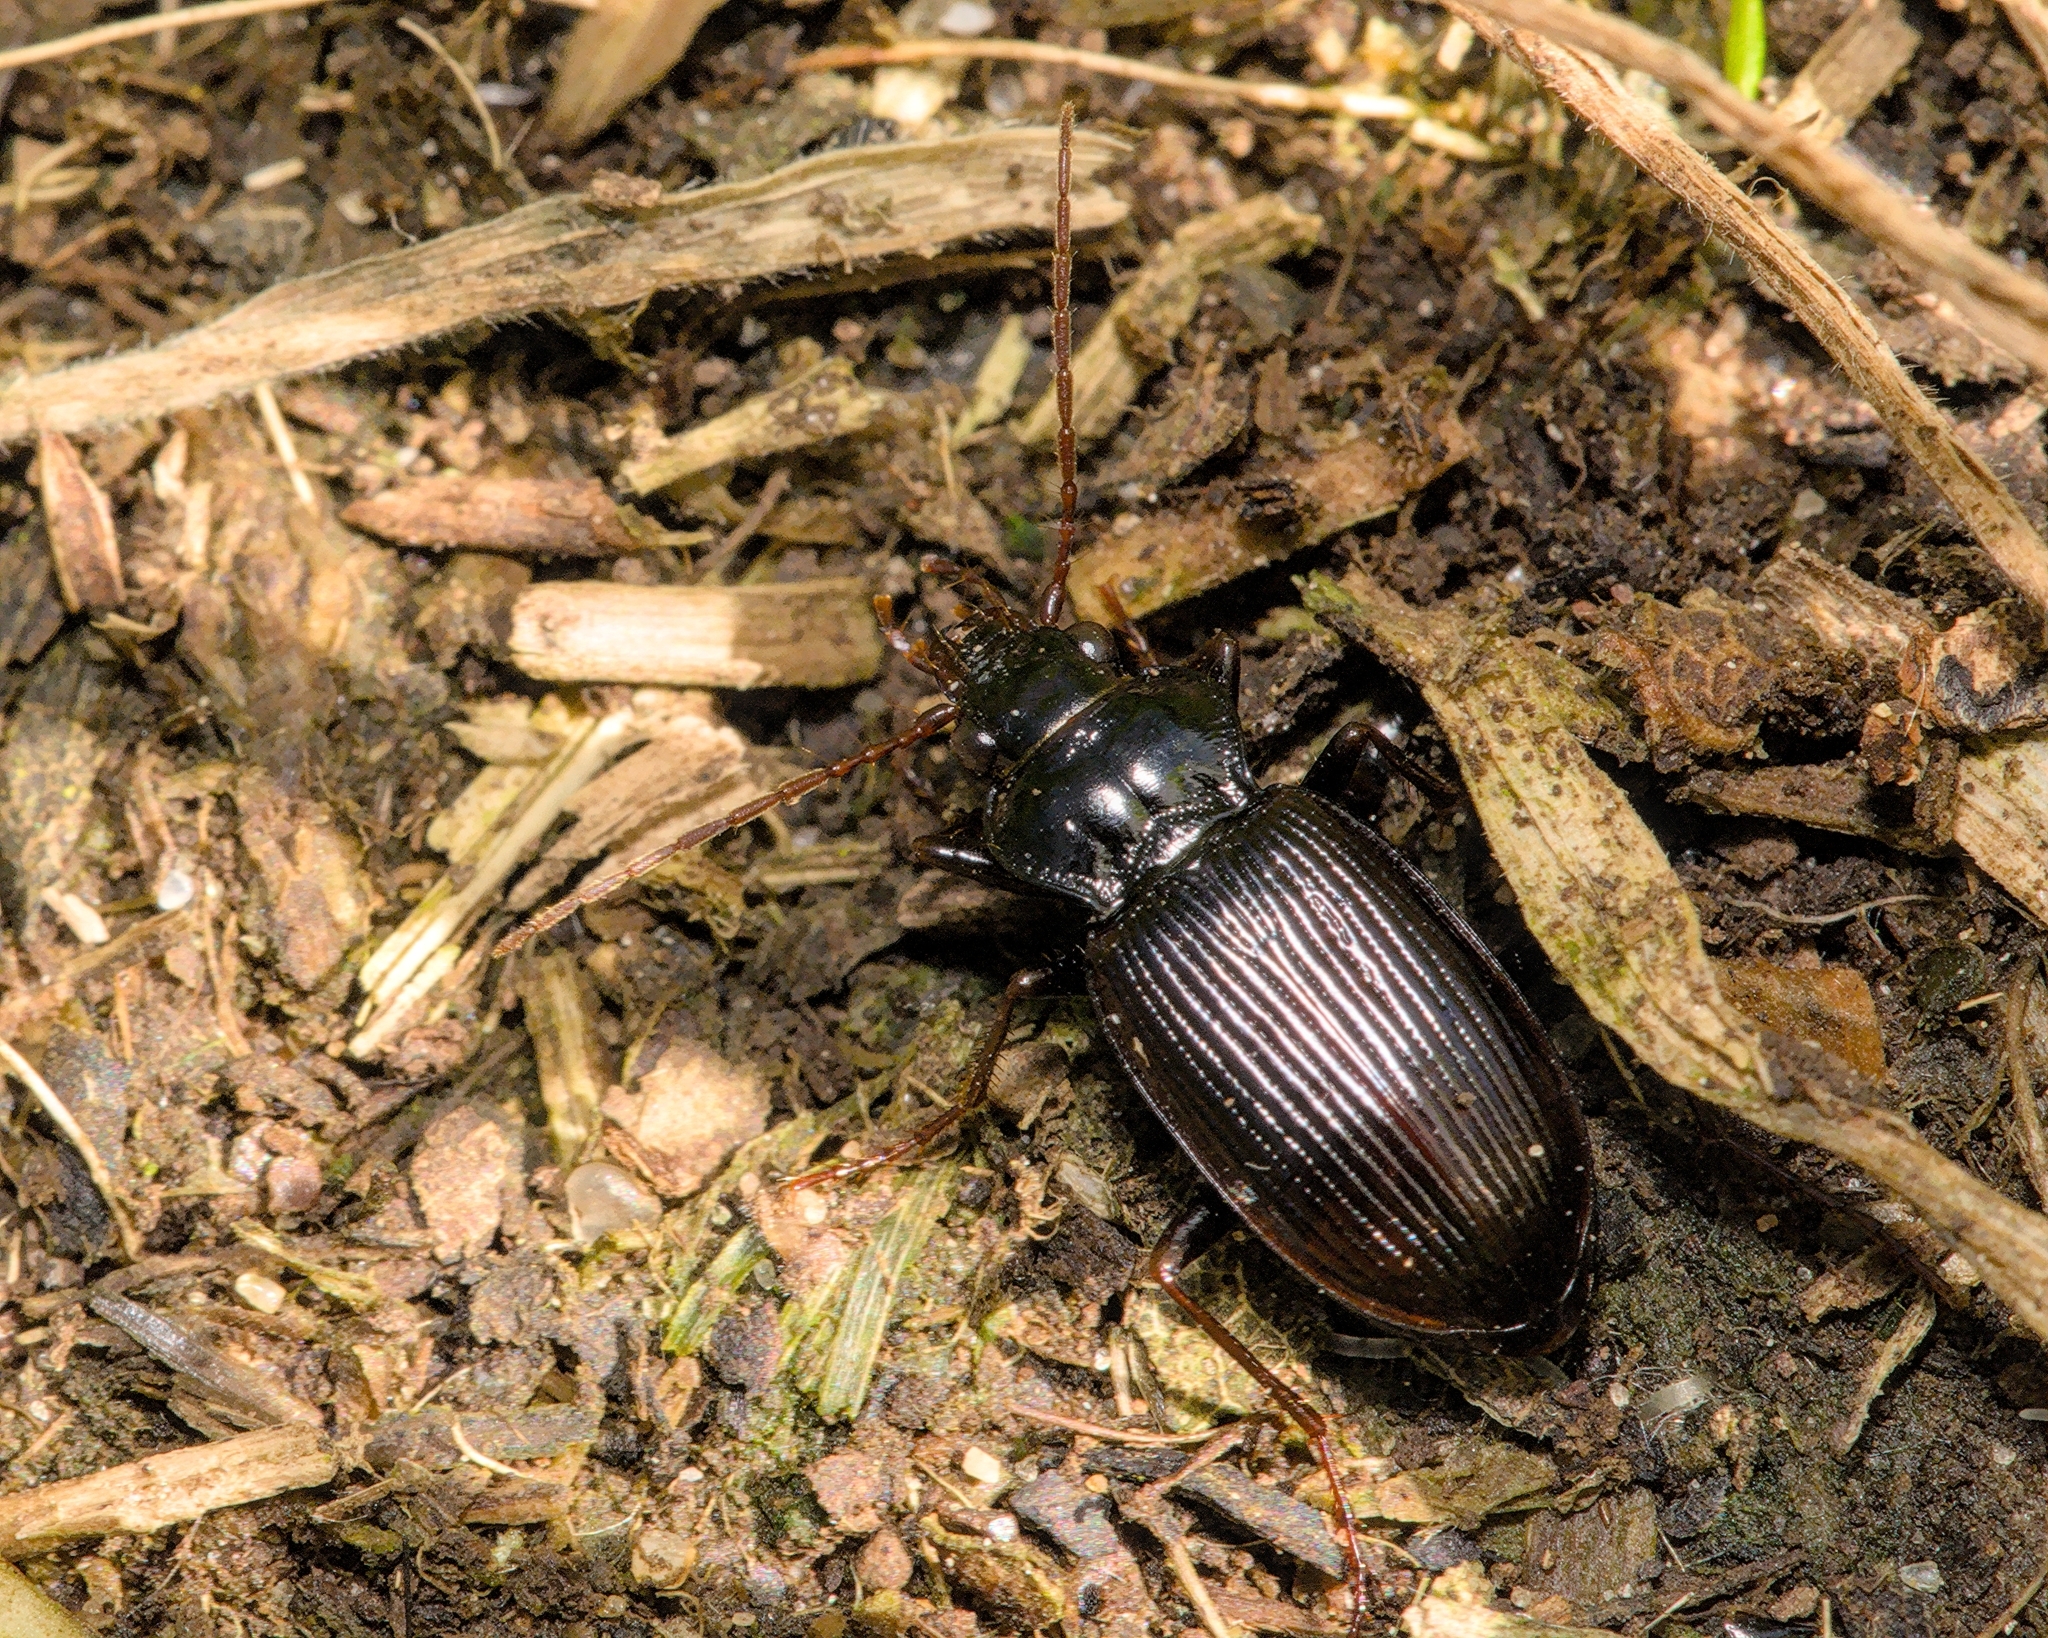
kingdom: Animalia
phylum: Arthropoda
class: Insecta
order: Coleoptera
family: Carabidae
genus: Nebria
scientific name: Nebria brevicollis
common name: Short-necked gazelle beetle
